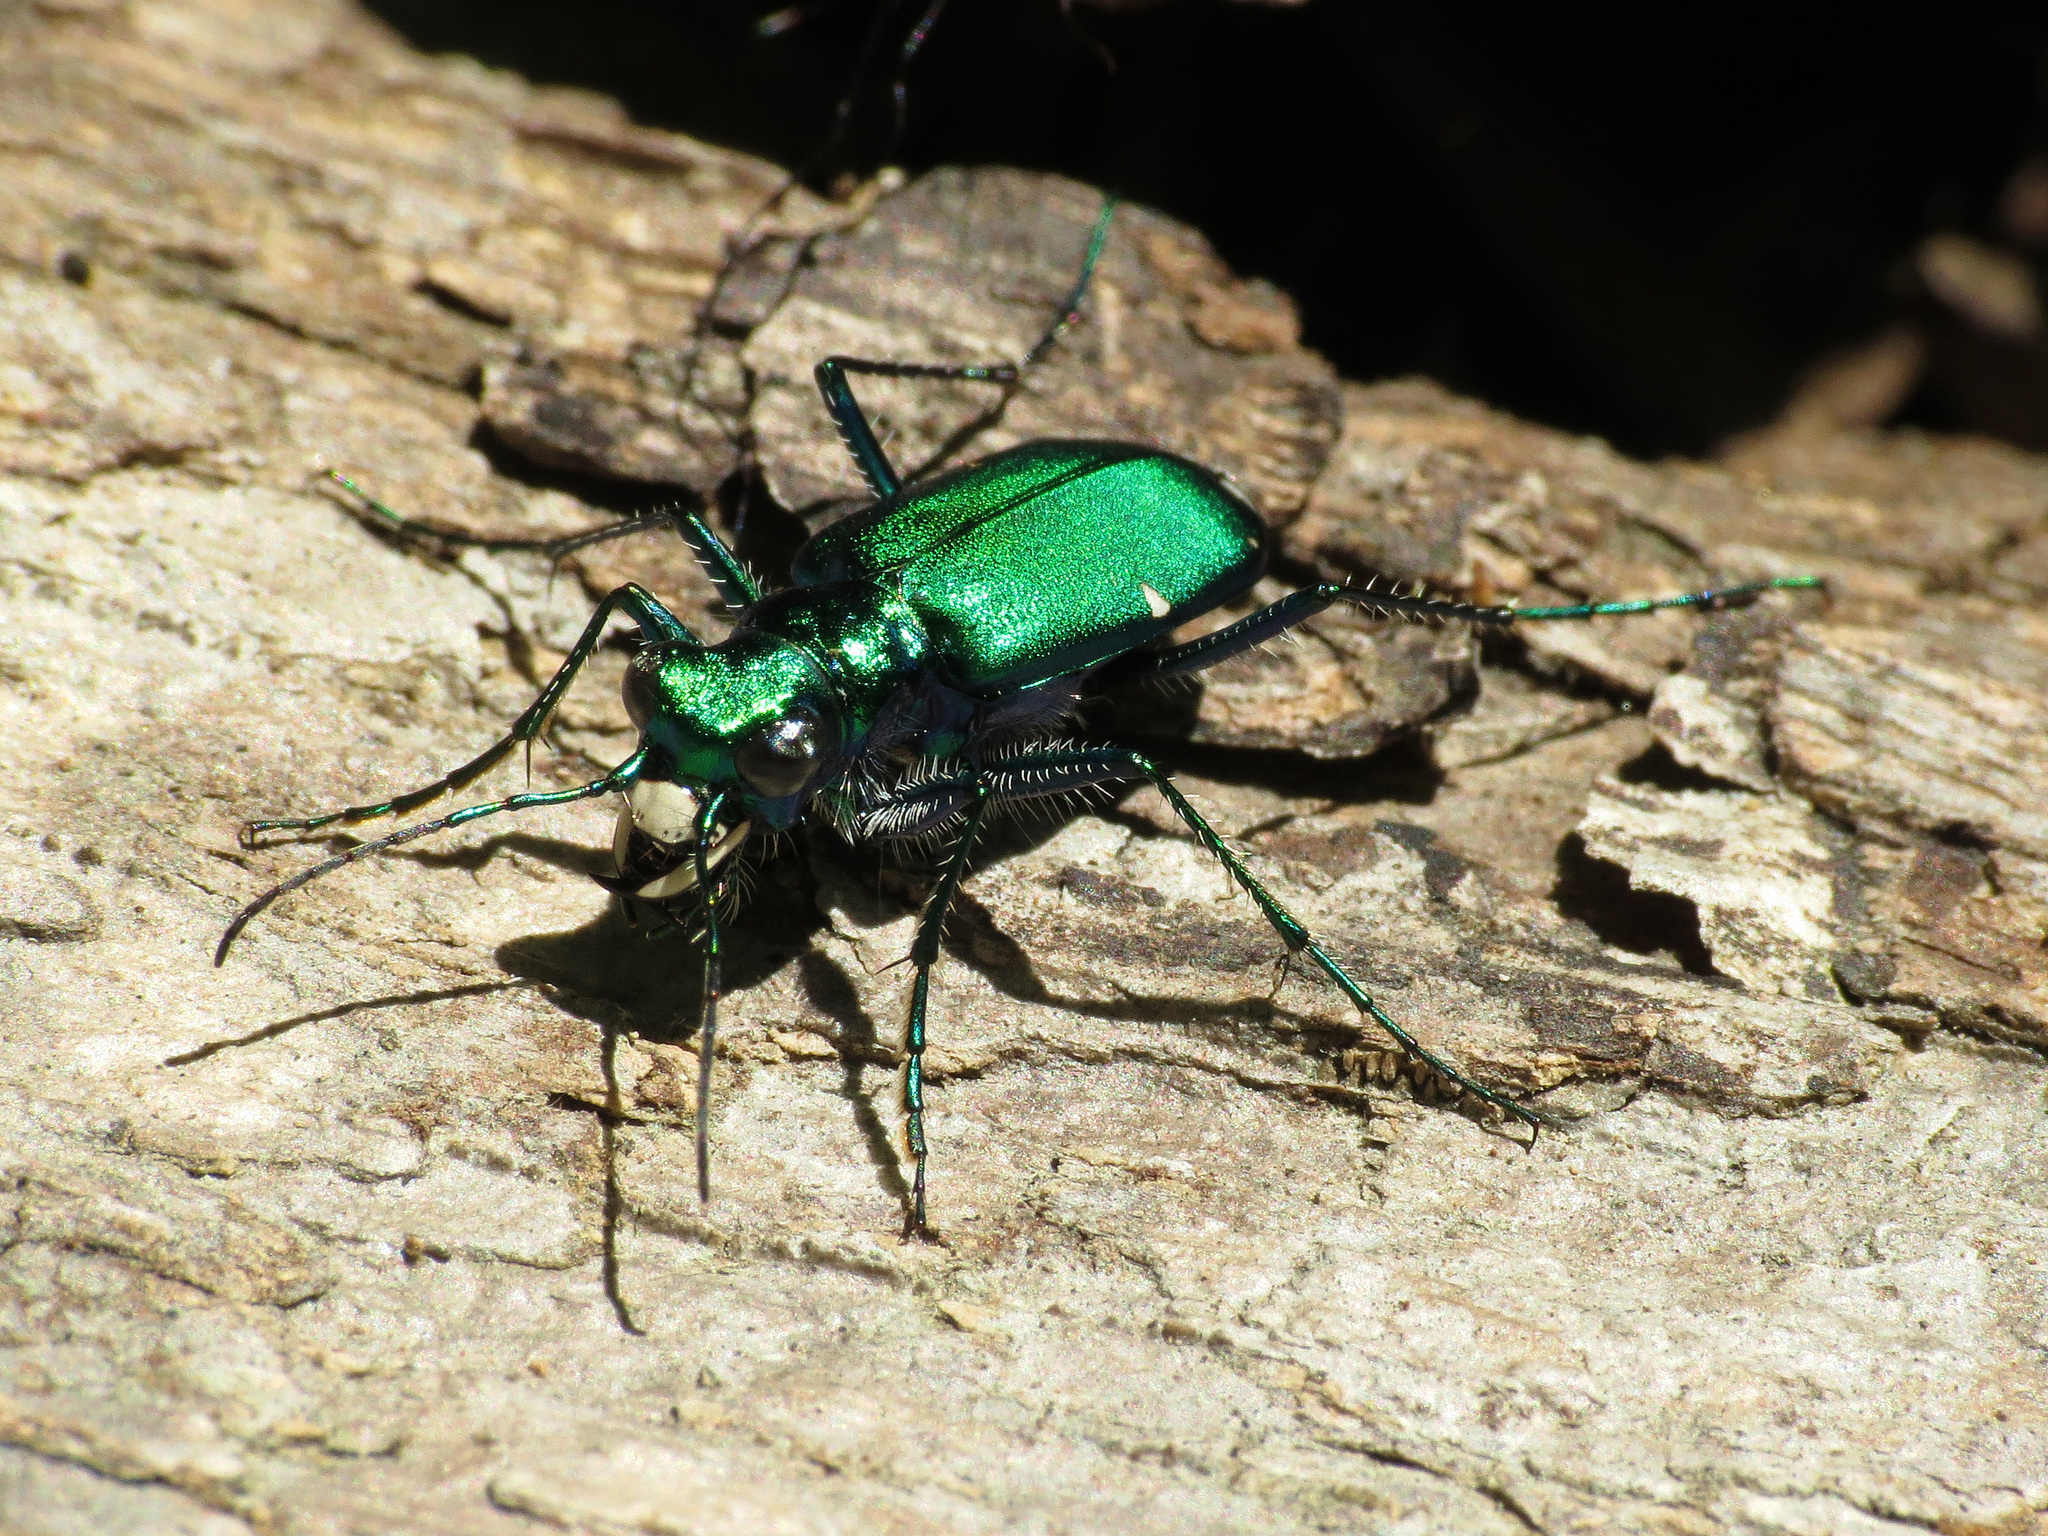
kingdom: Animalia
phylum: Arthropoda
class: Insecta
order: Coleoptera
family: Carabidae
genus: Cicindela
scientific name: Cicindela sexguttata
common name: Six-spotted tiger beetle
